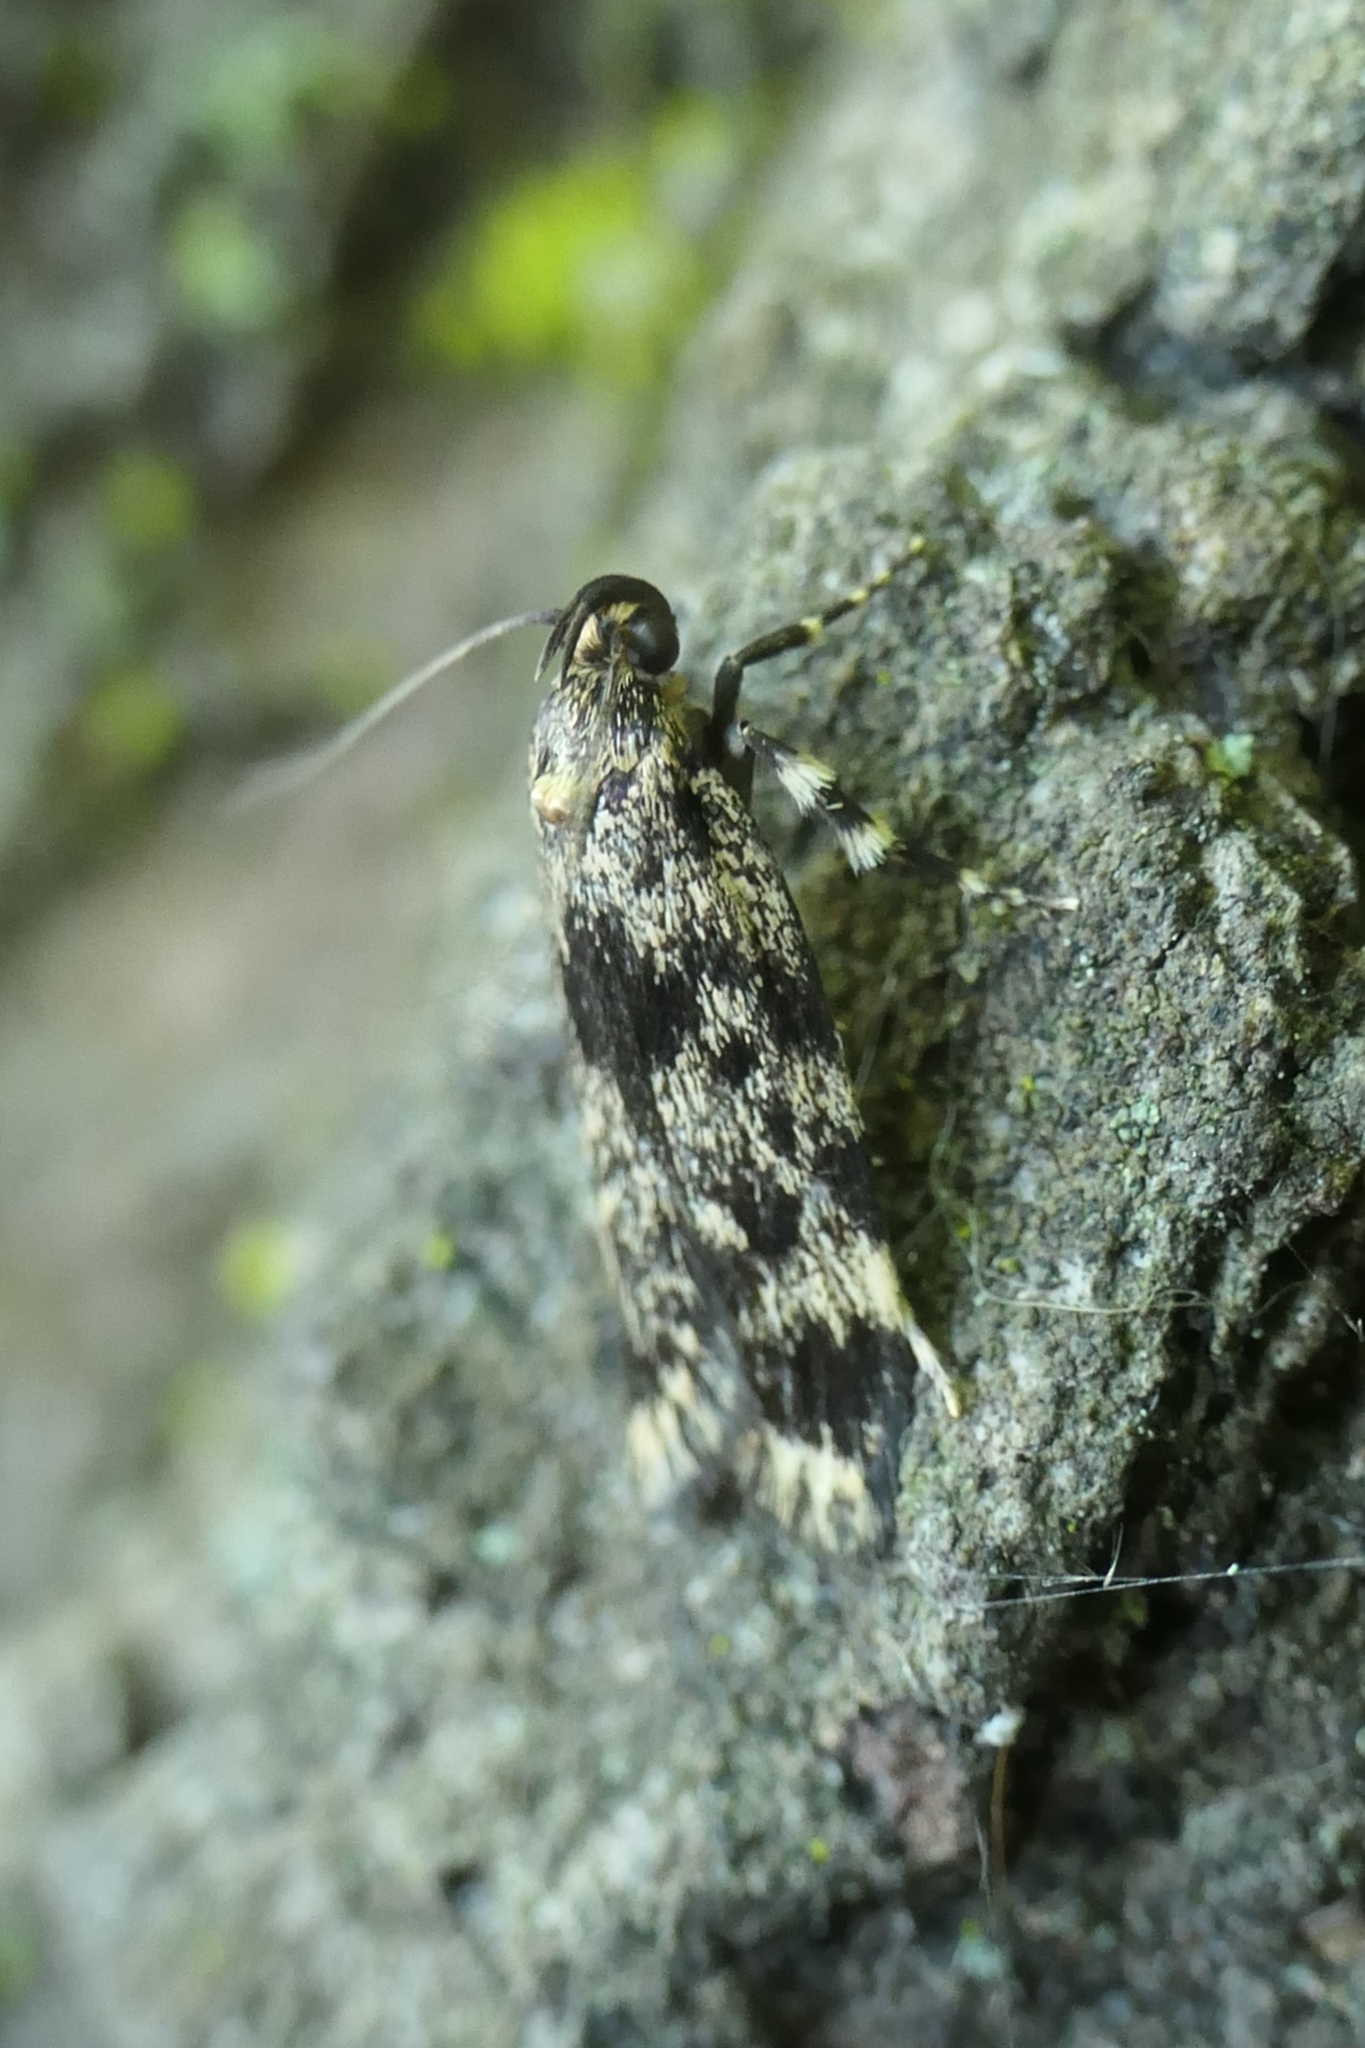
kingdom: Animalia
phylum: Arthropoda
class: Insecta
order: Lepidoptera
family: Oecophoridae
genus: Barea
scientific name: Barea codrella
